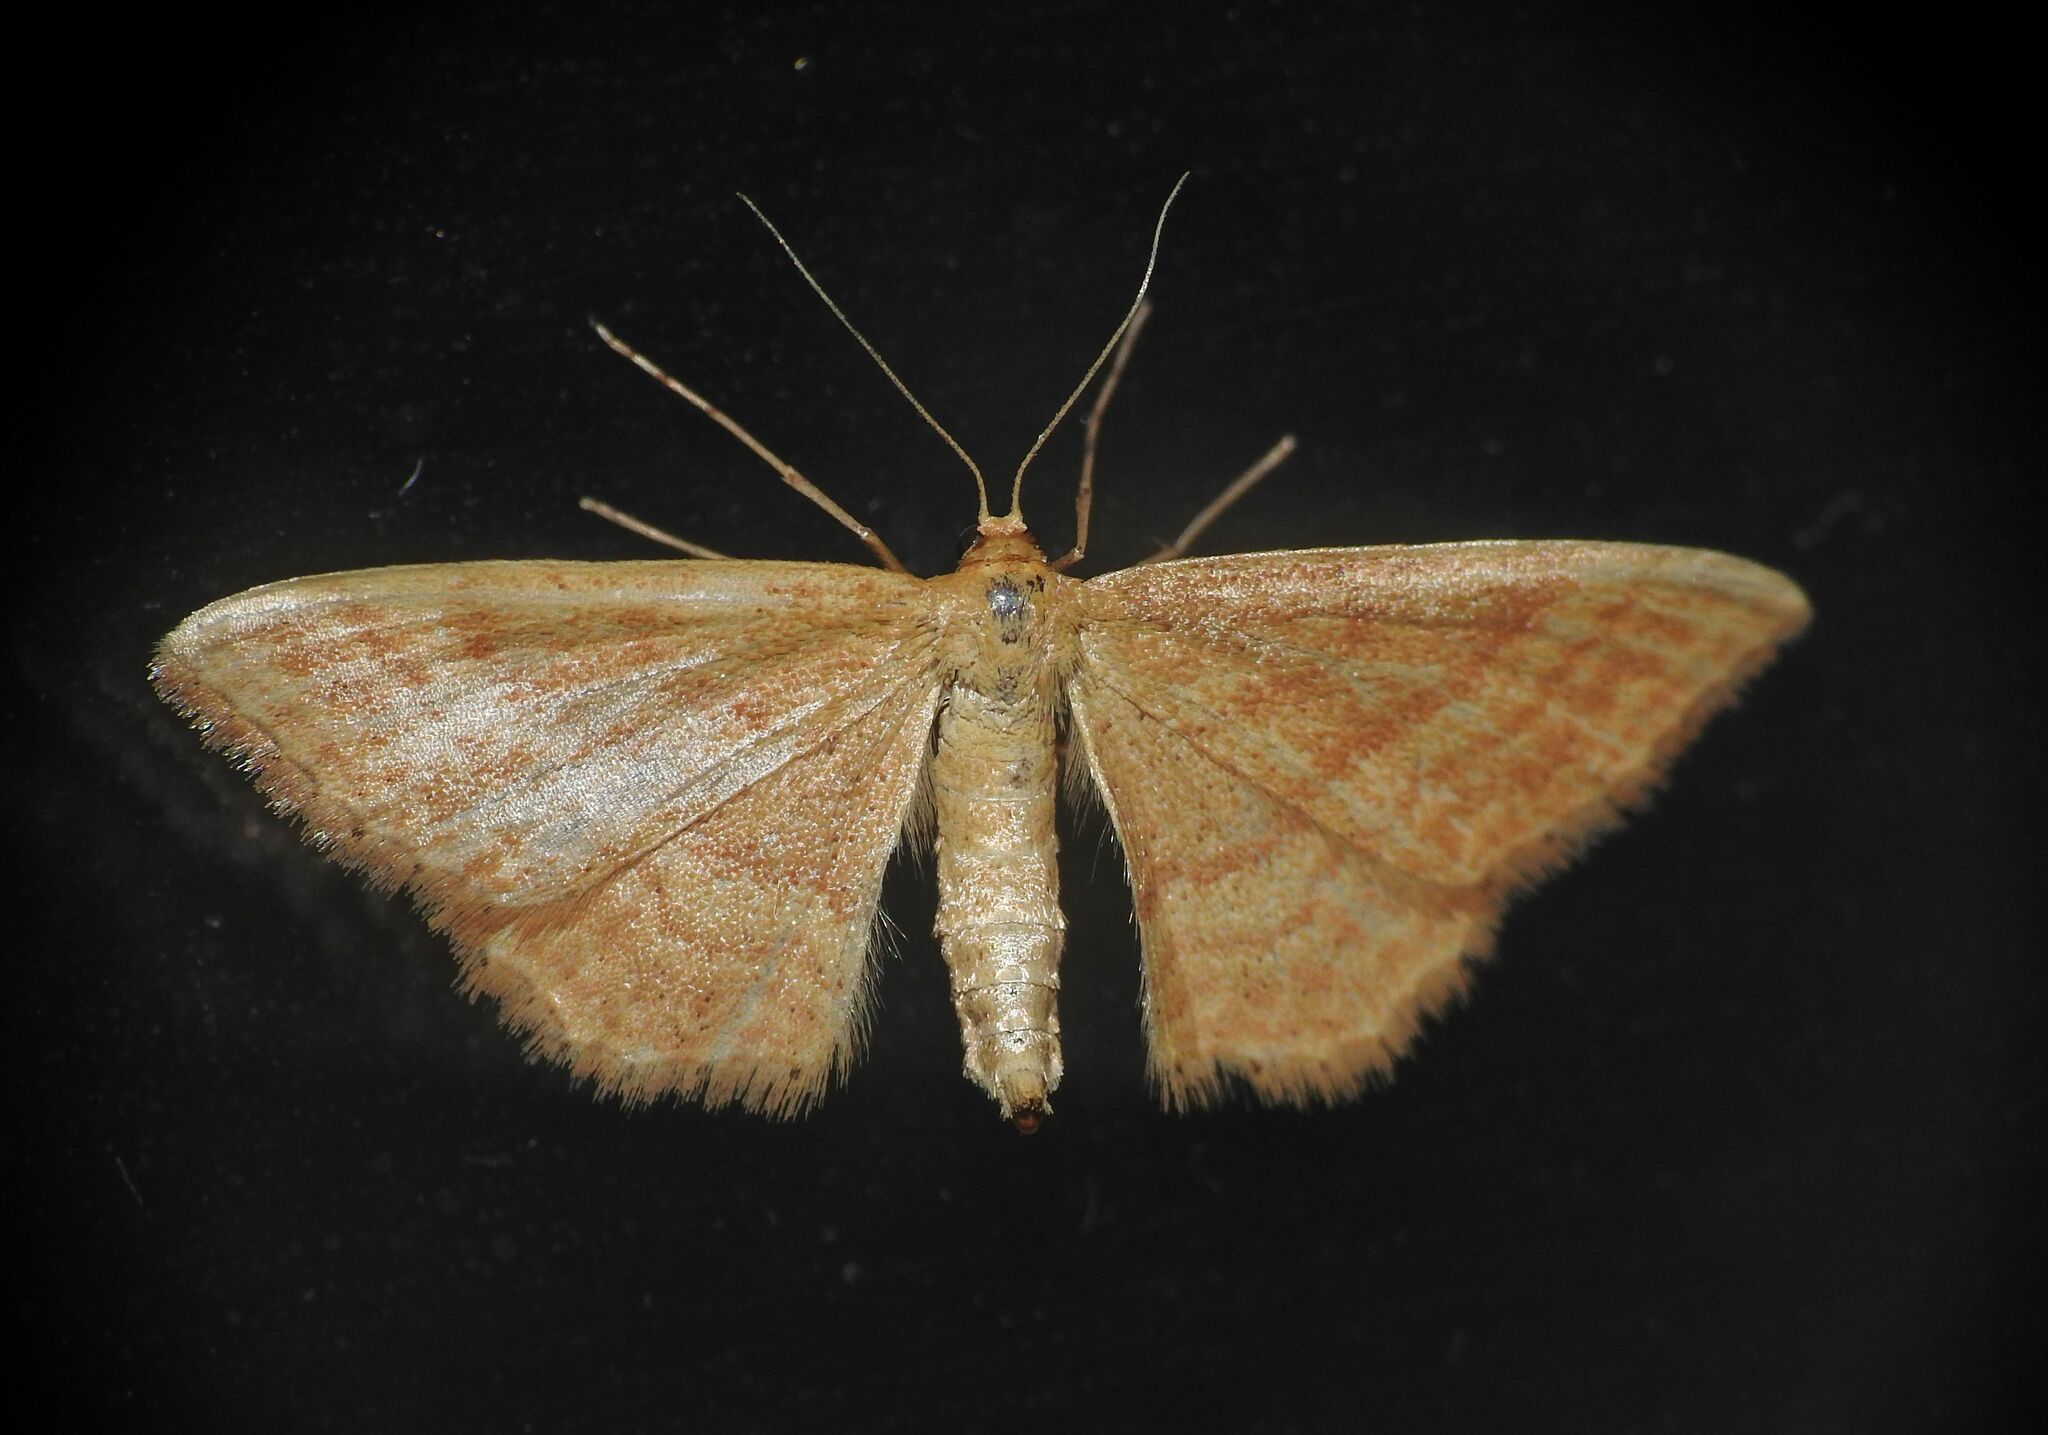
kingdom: Animalia
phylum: Arthropoda
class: Insecta
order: Lepidoptera
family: Geometridae
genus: Idaea
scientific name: Idaea ochrata
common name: Bright wave
